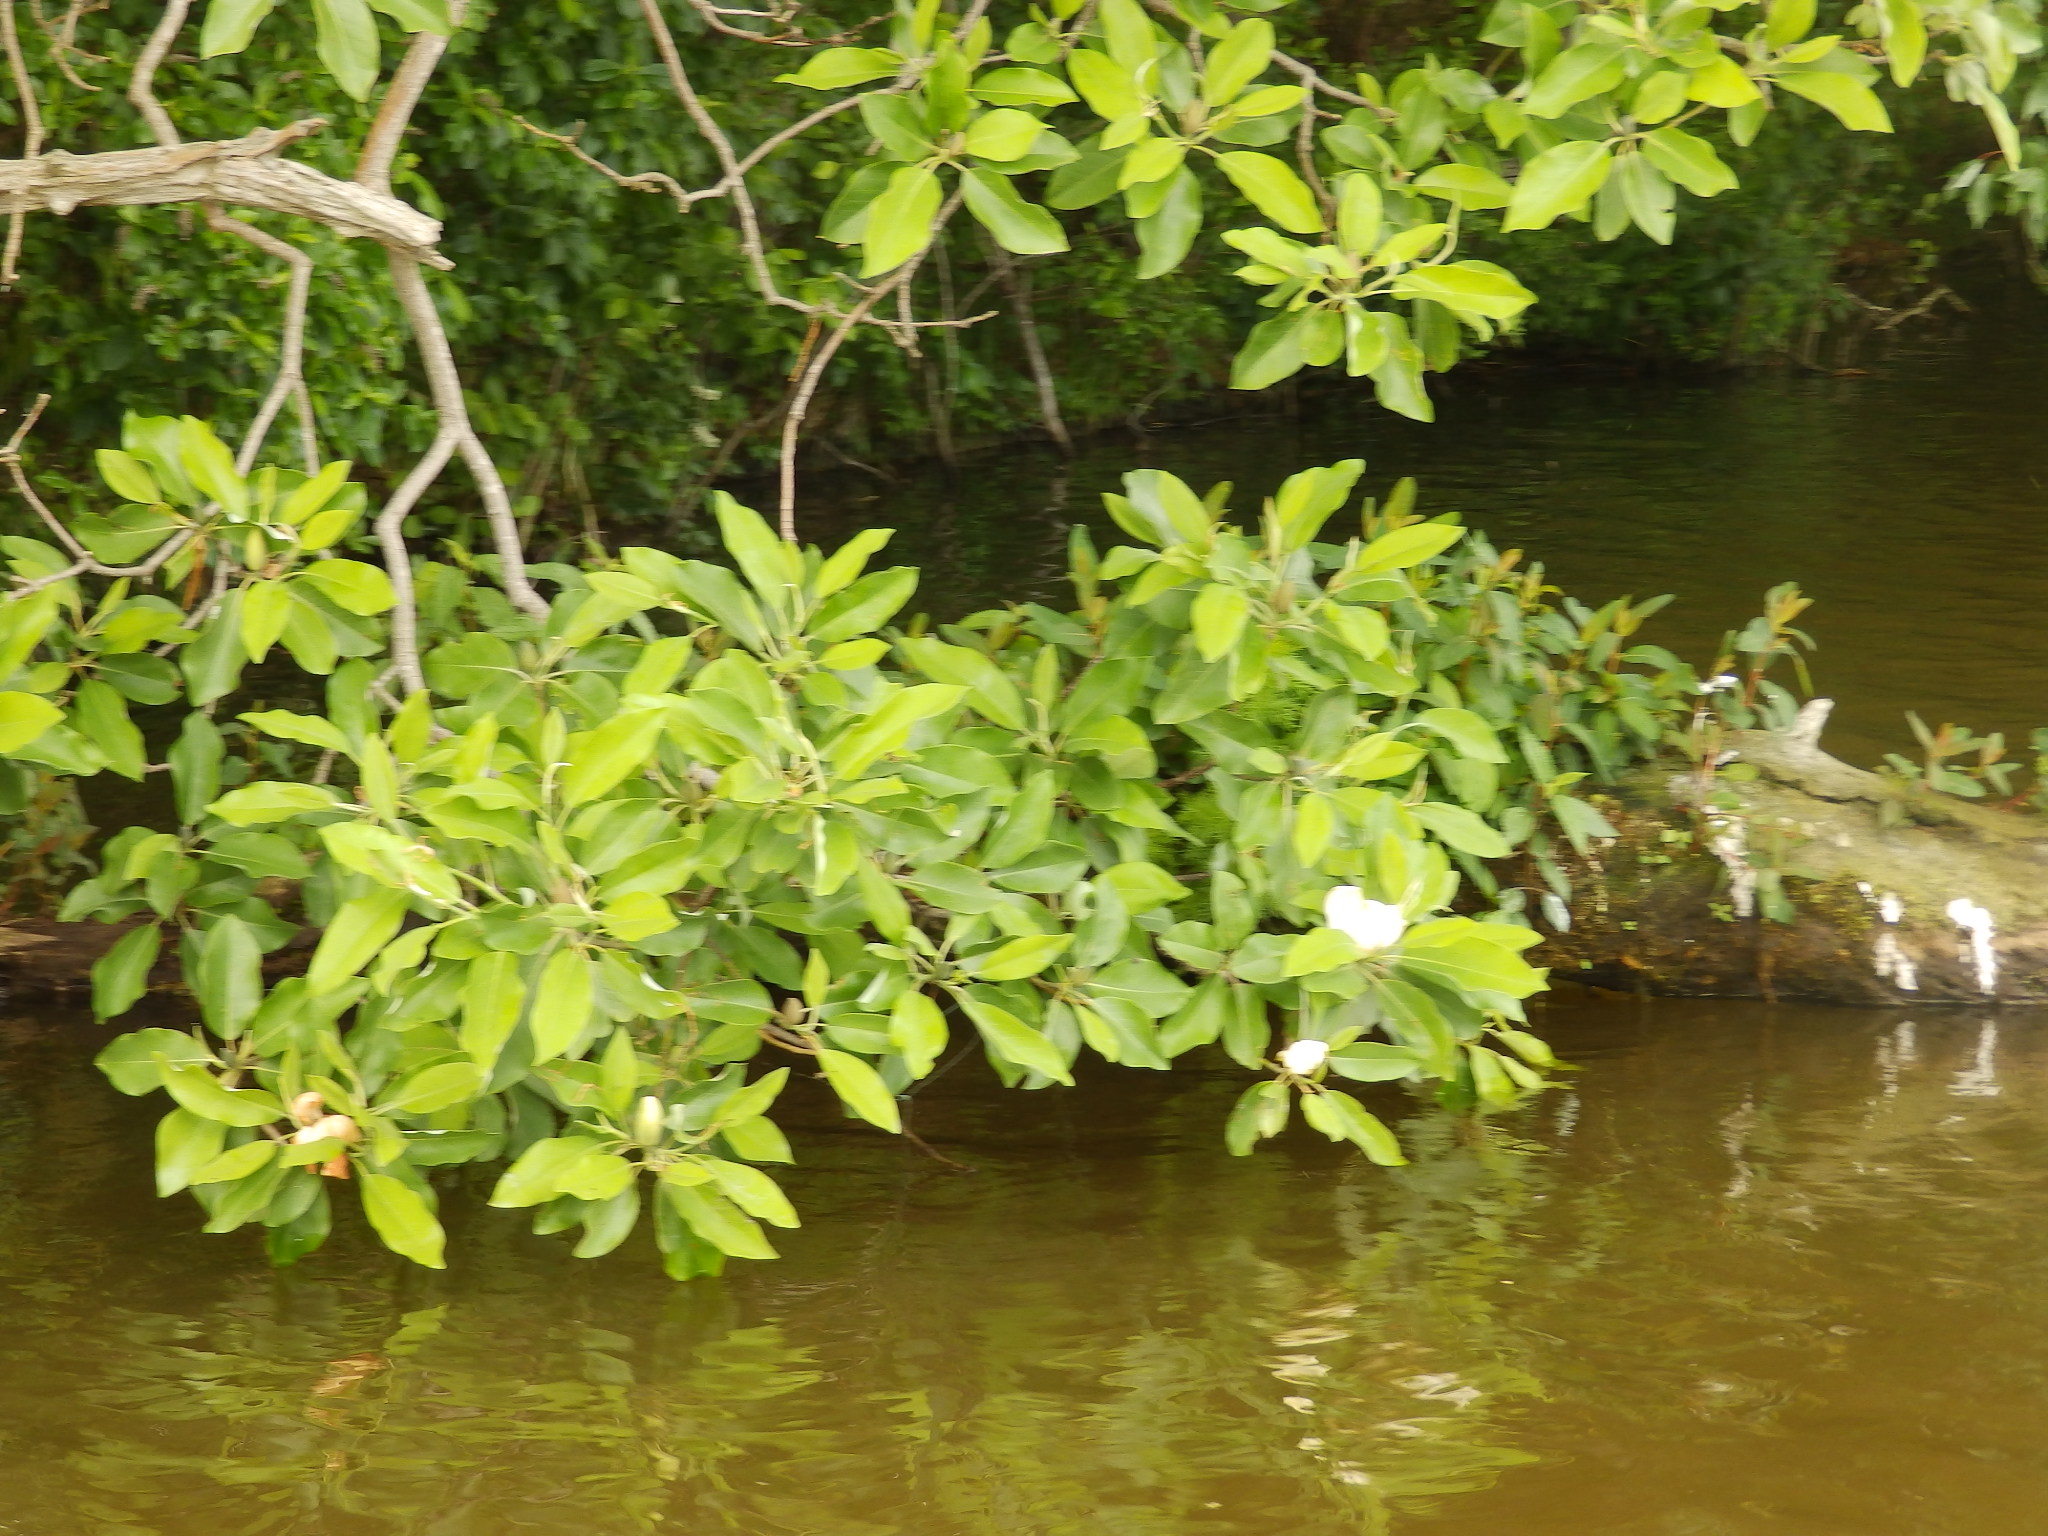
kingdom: Plantae
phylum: Tracheophyta
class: Magnoliopsida
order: Magnoliales
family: Magnoliaceae
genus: Magnolia
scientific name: Magnolia virginiana
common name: Swamp bay
